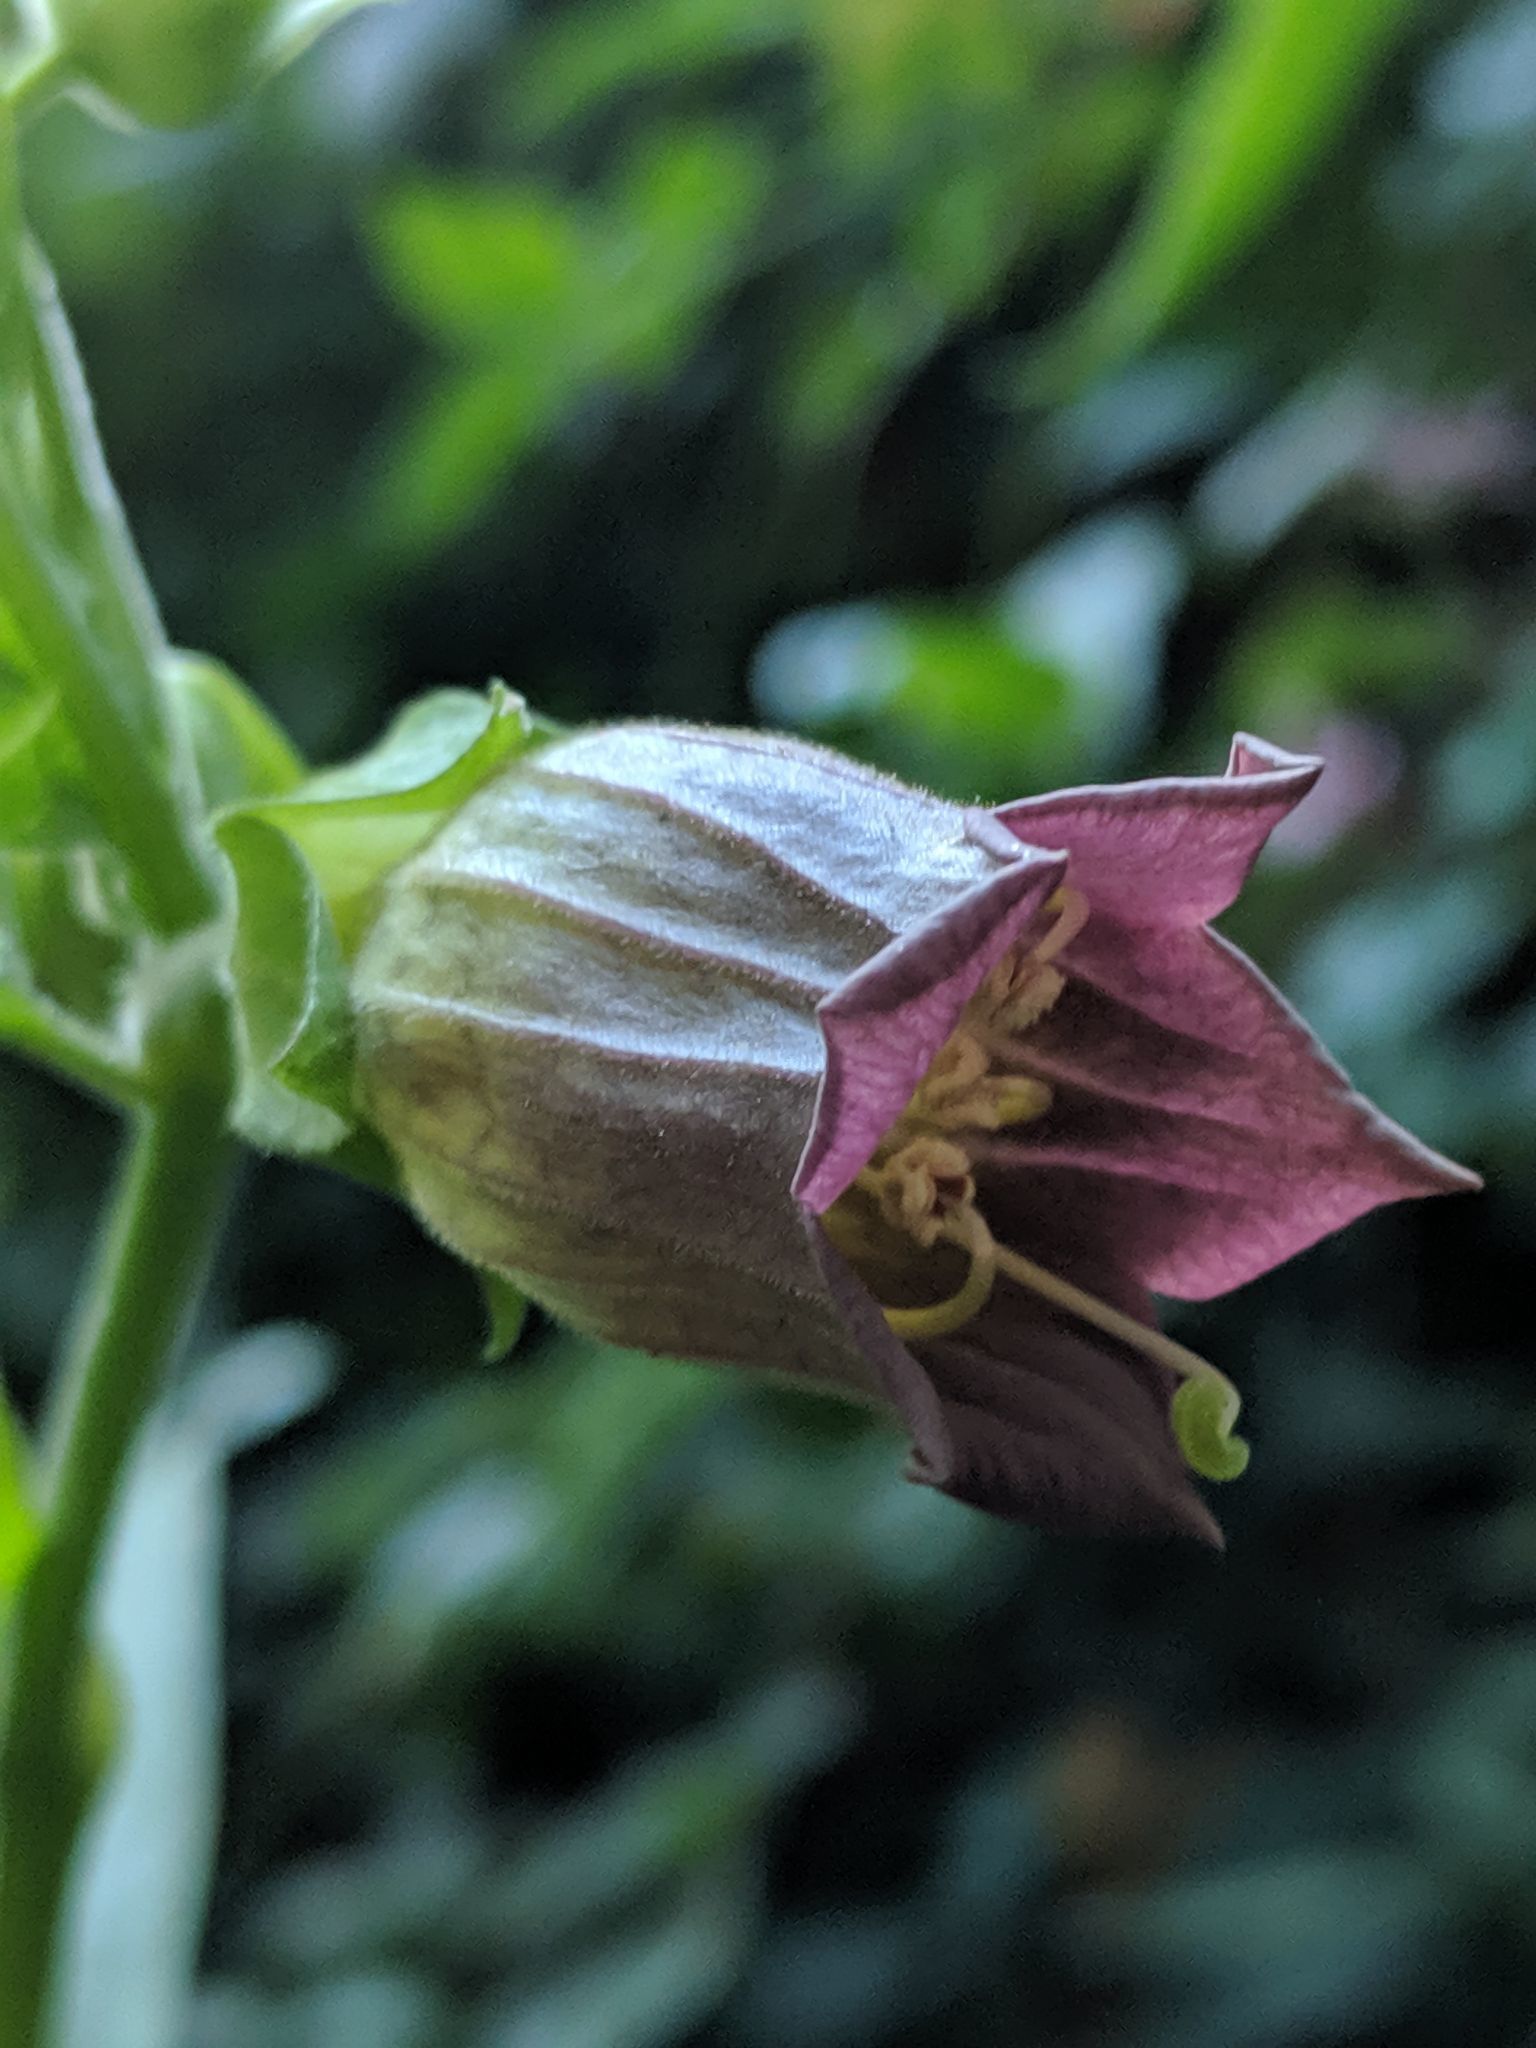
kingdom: Plantae
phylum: Tracheophyta
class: Magnoliopsida
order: Solanales
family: Solanaceae
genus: Atropa
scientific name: Atropa belladonna
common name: Deadly nightshade
